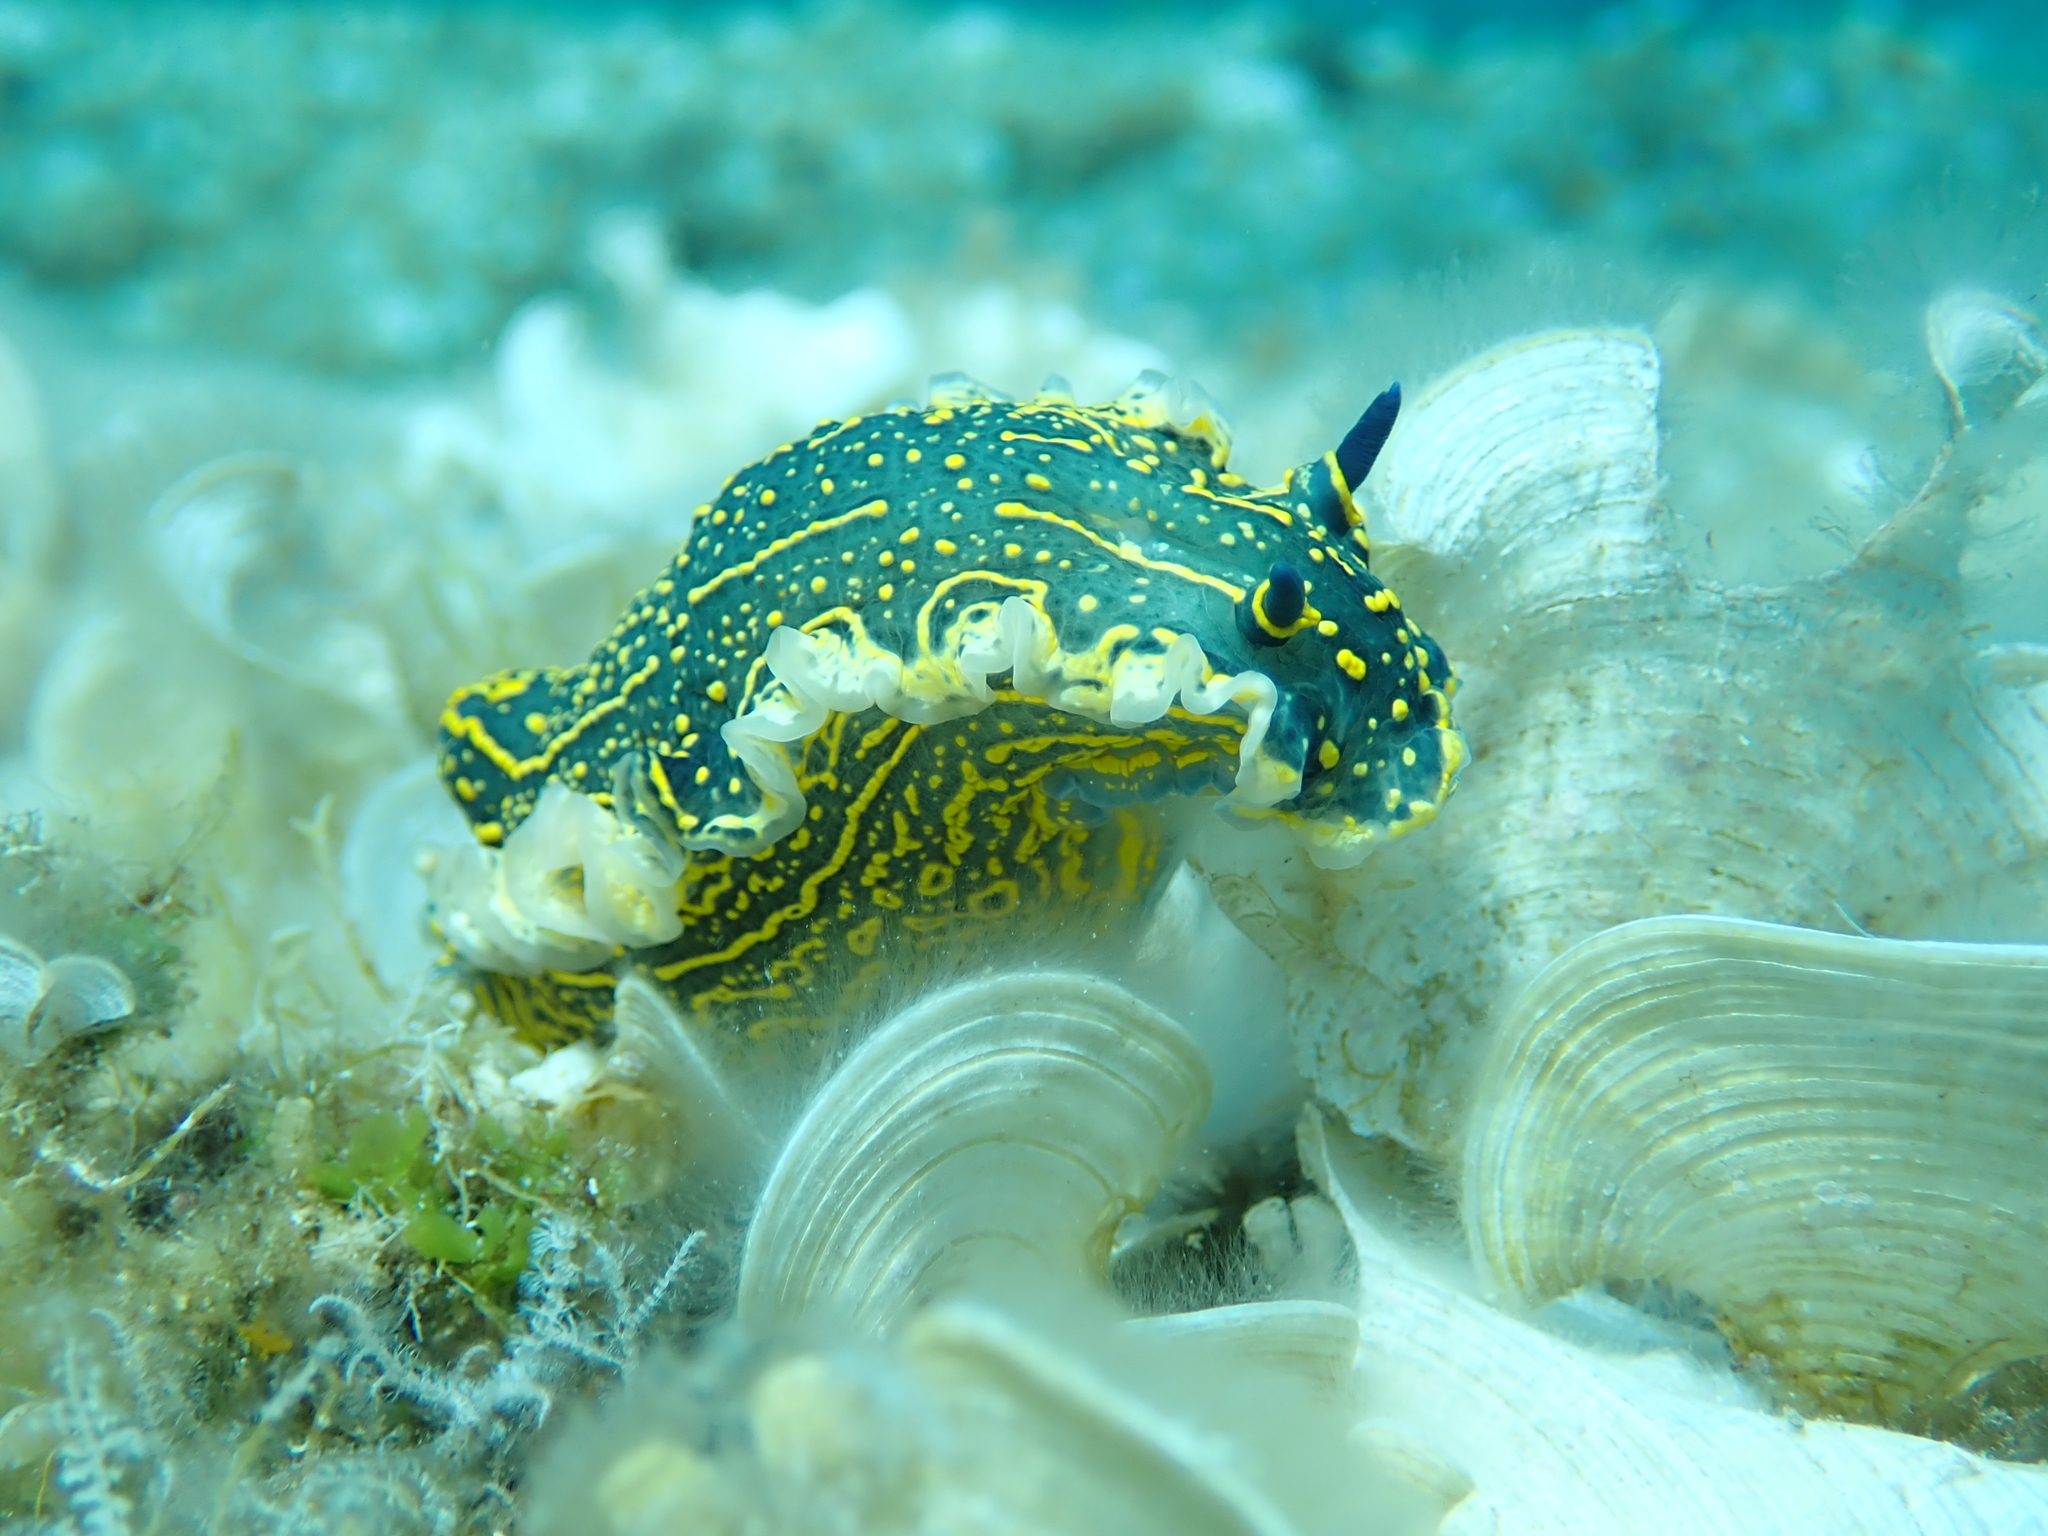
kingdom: Animalia
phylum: Mollusca
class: Gastropoda
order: Nudibranchia
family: Chromodorididae
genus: Felimare
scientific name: Felimare picta
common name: Giant doris
